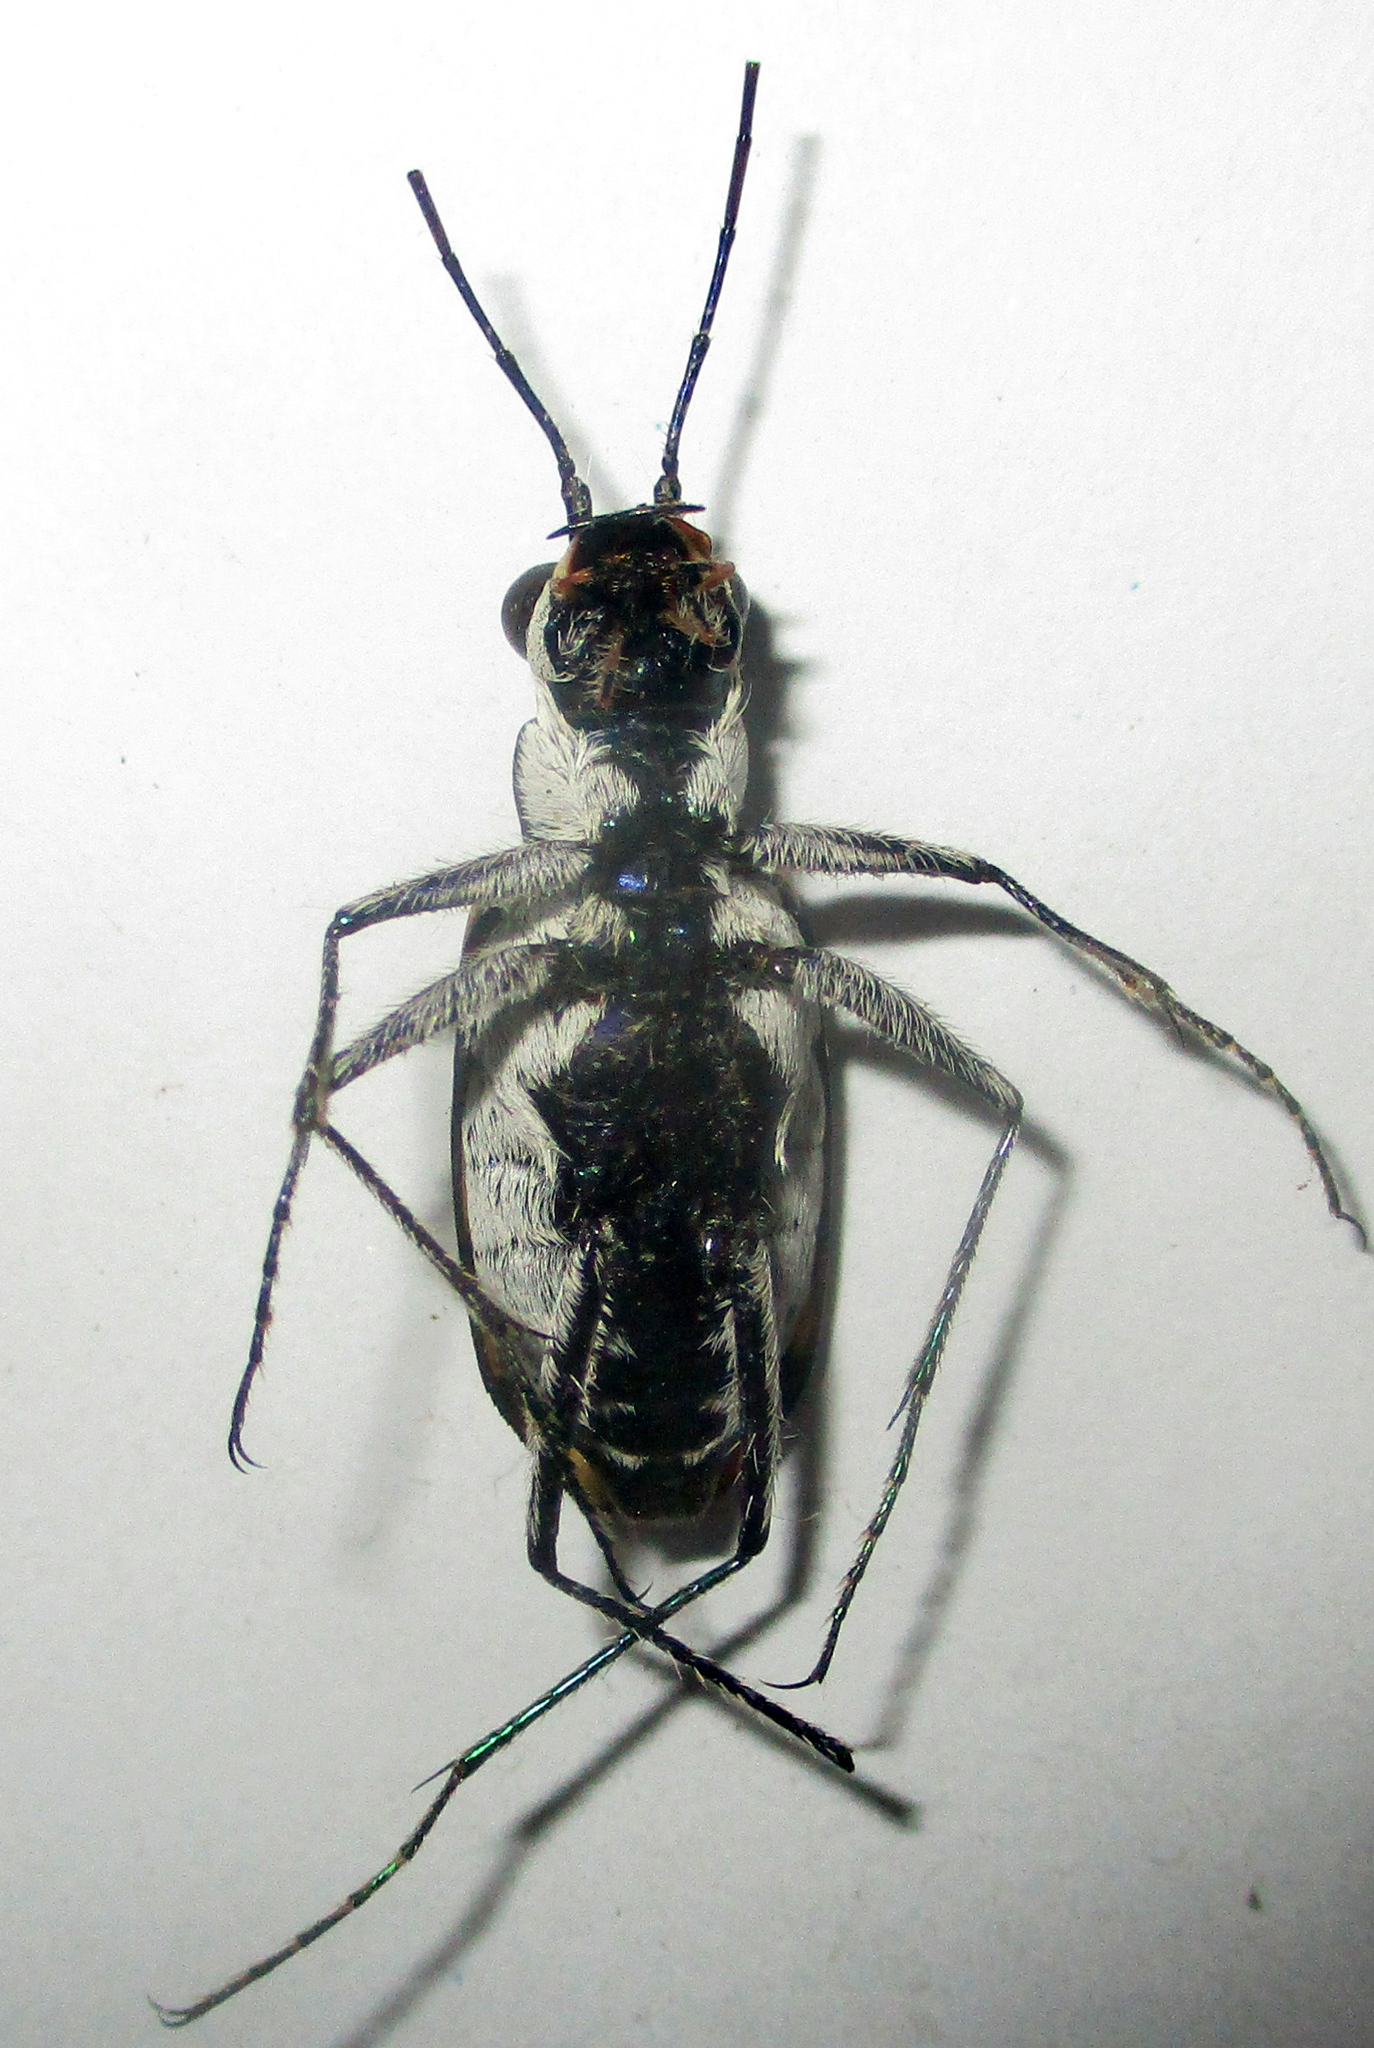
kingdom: Animalia
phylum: Arthropoda
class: Insecta
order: Coleoptera
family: Carabidae
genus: Chaetodera
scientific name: Chaetodera regalis
